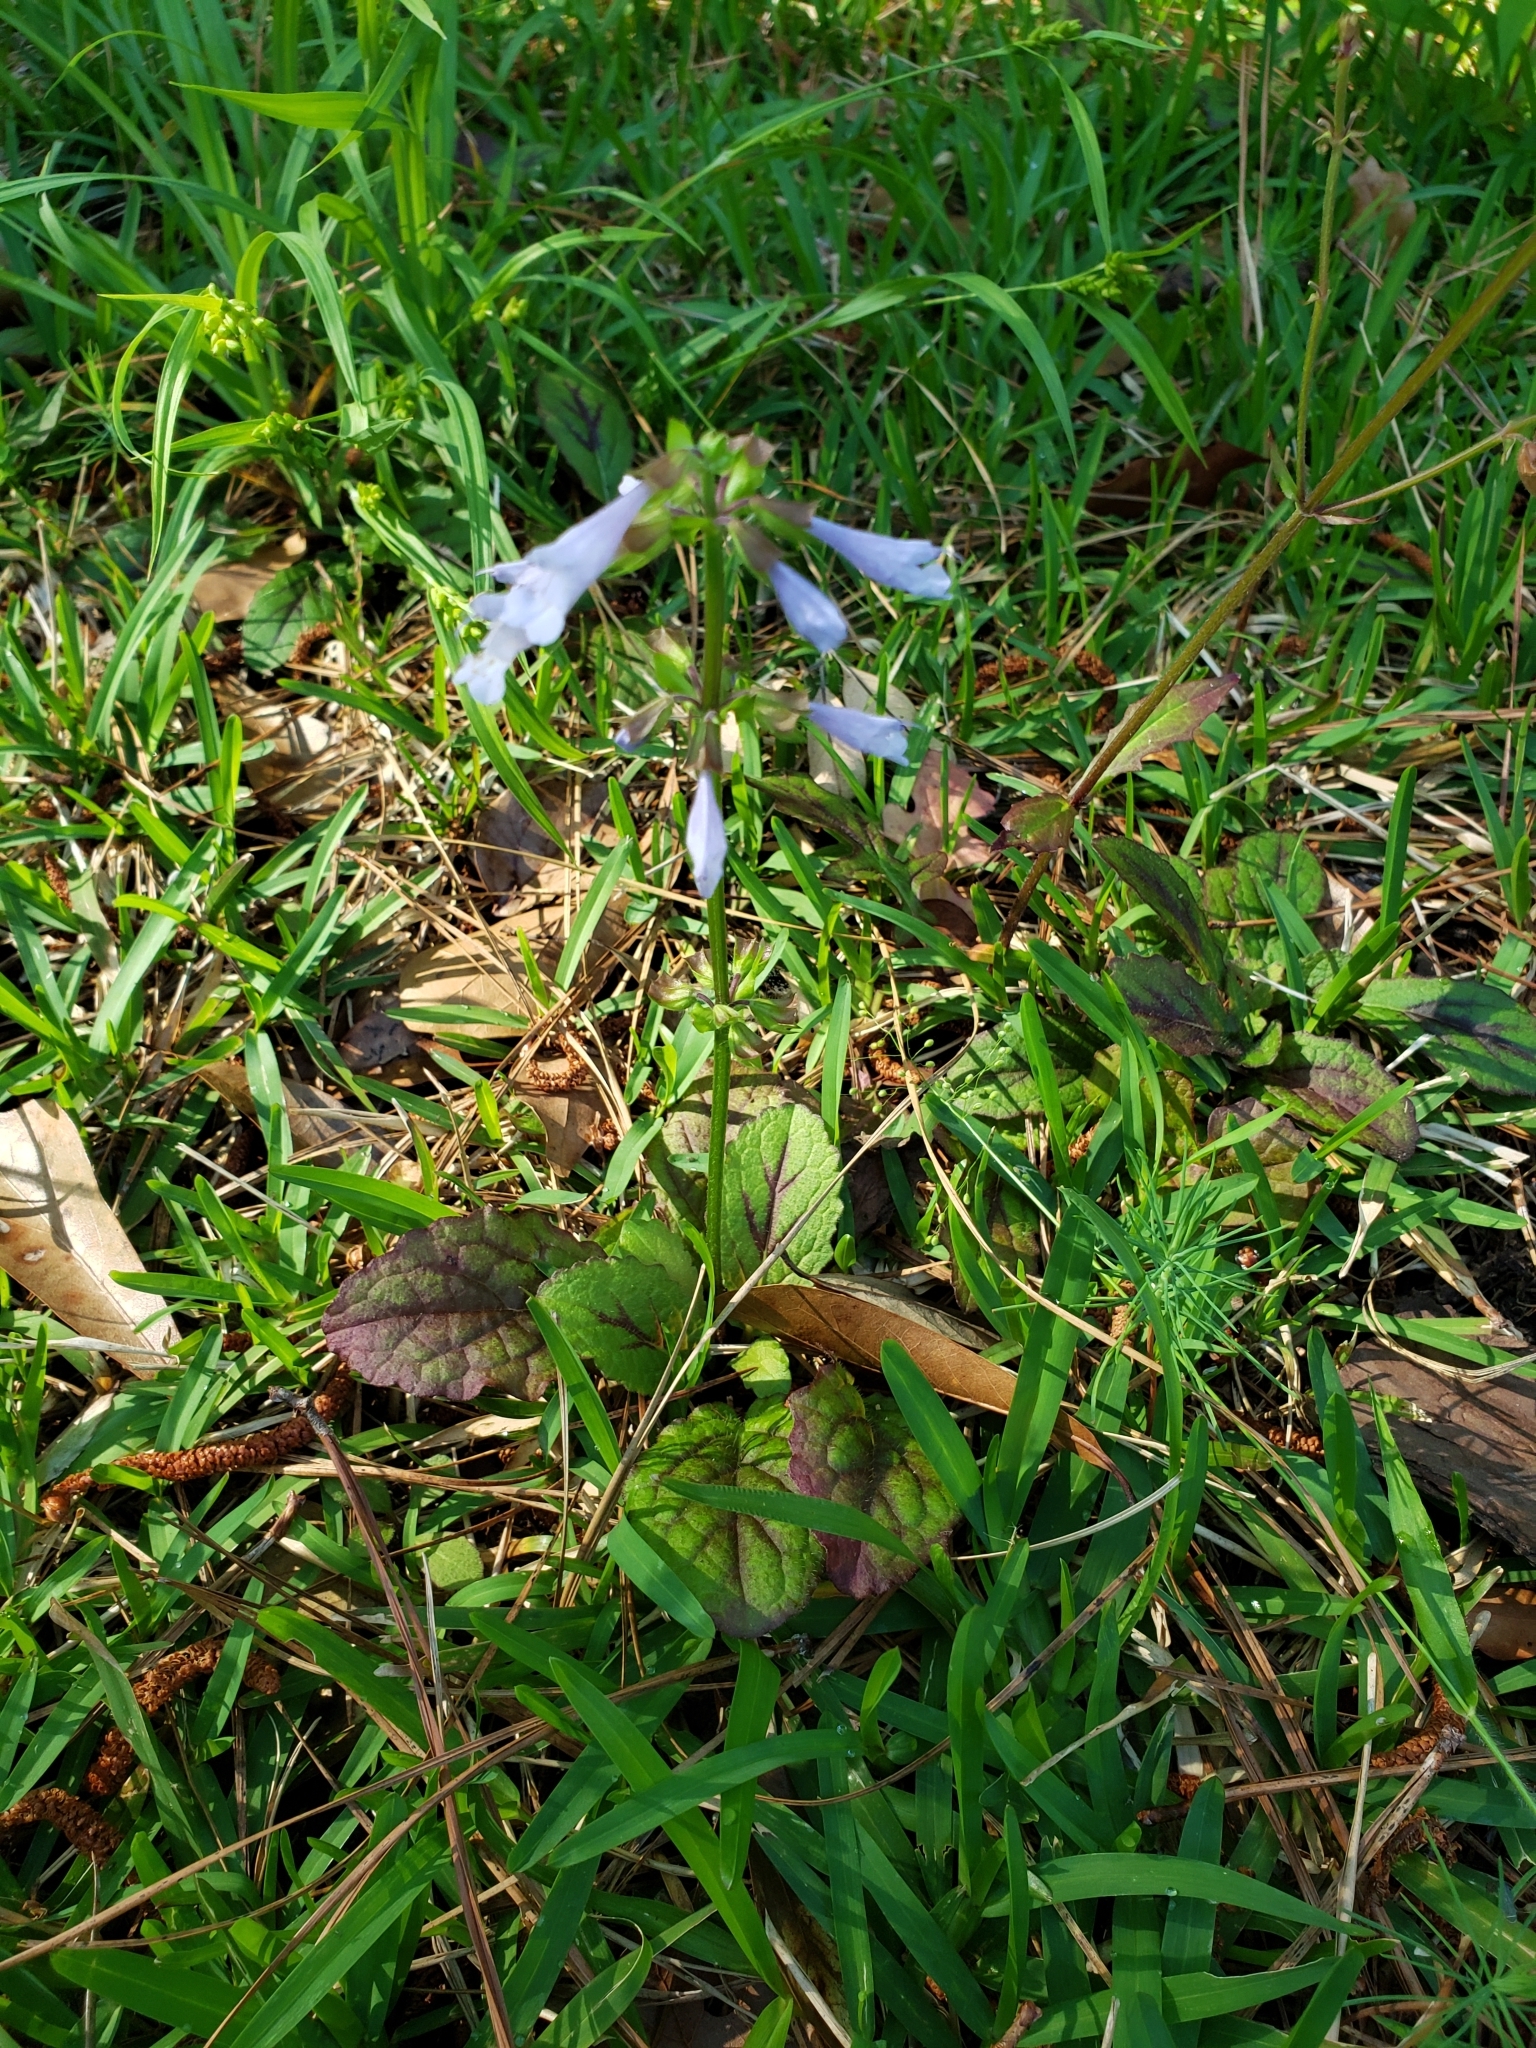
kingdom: Plantae
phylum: Tracheophyta
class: Magnoliopsida
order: Lamiales
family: Lamiaceae
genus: Salvia
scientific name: Salvia lyrata
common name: Cancerweed
